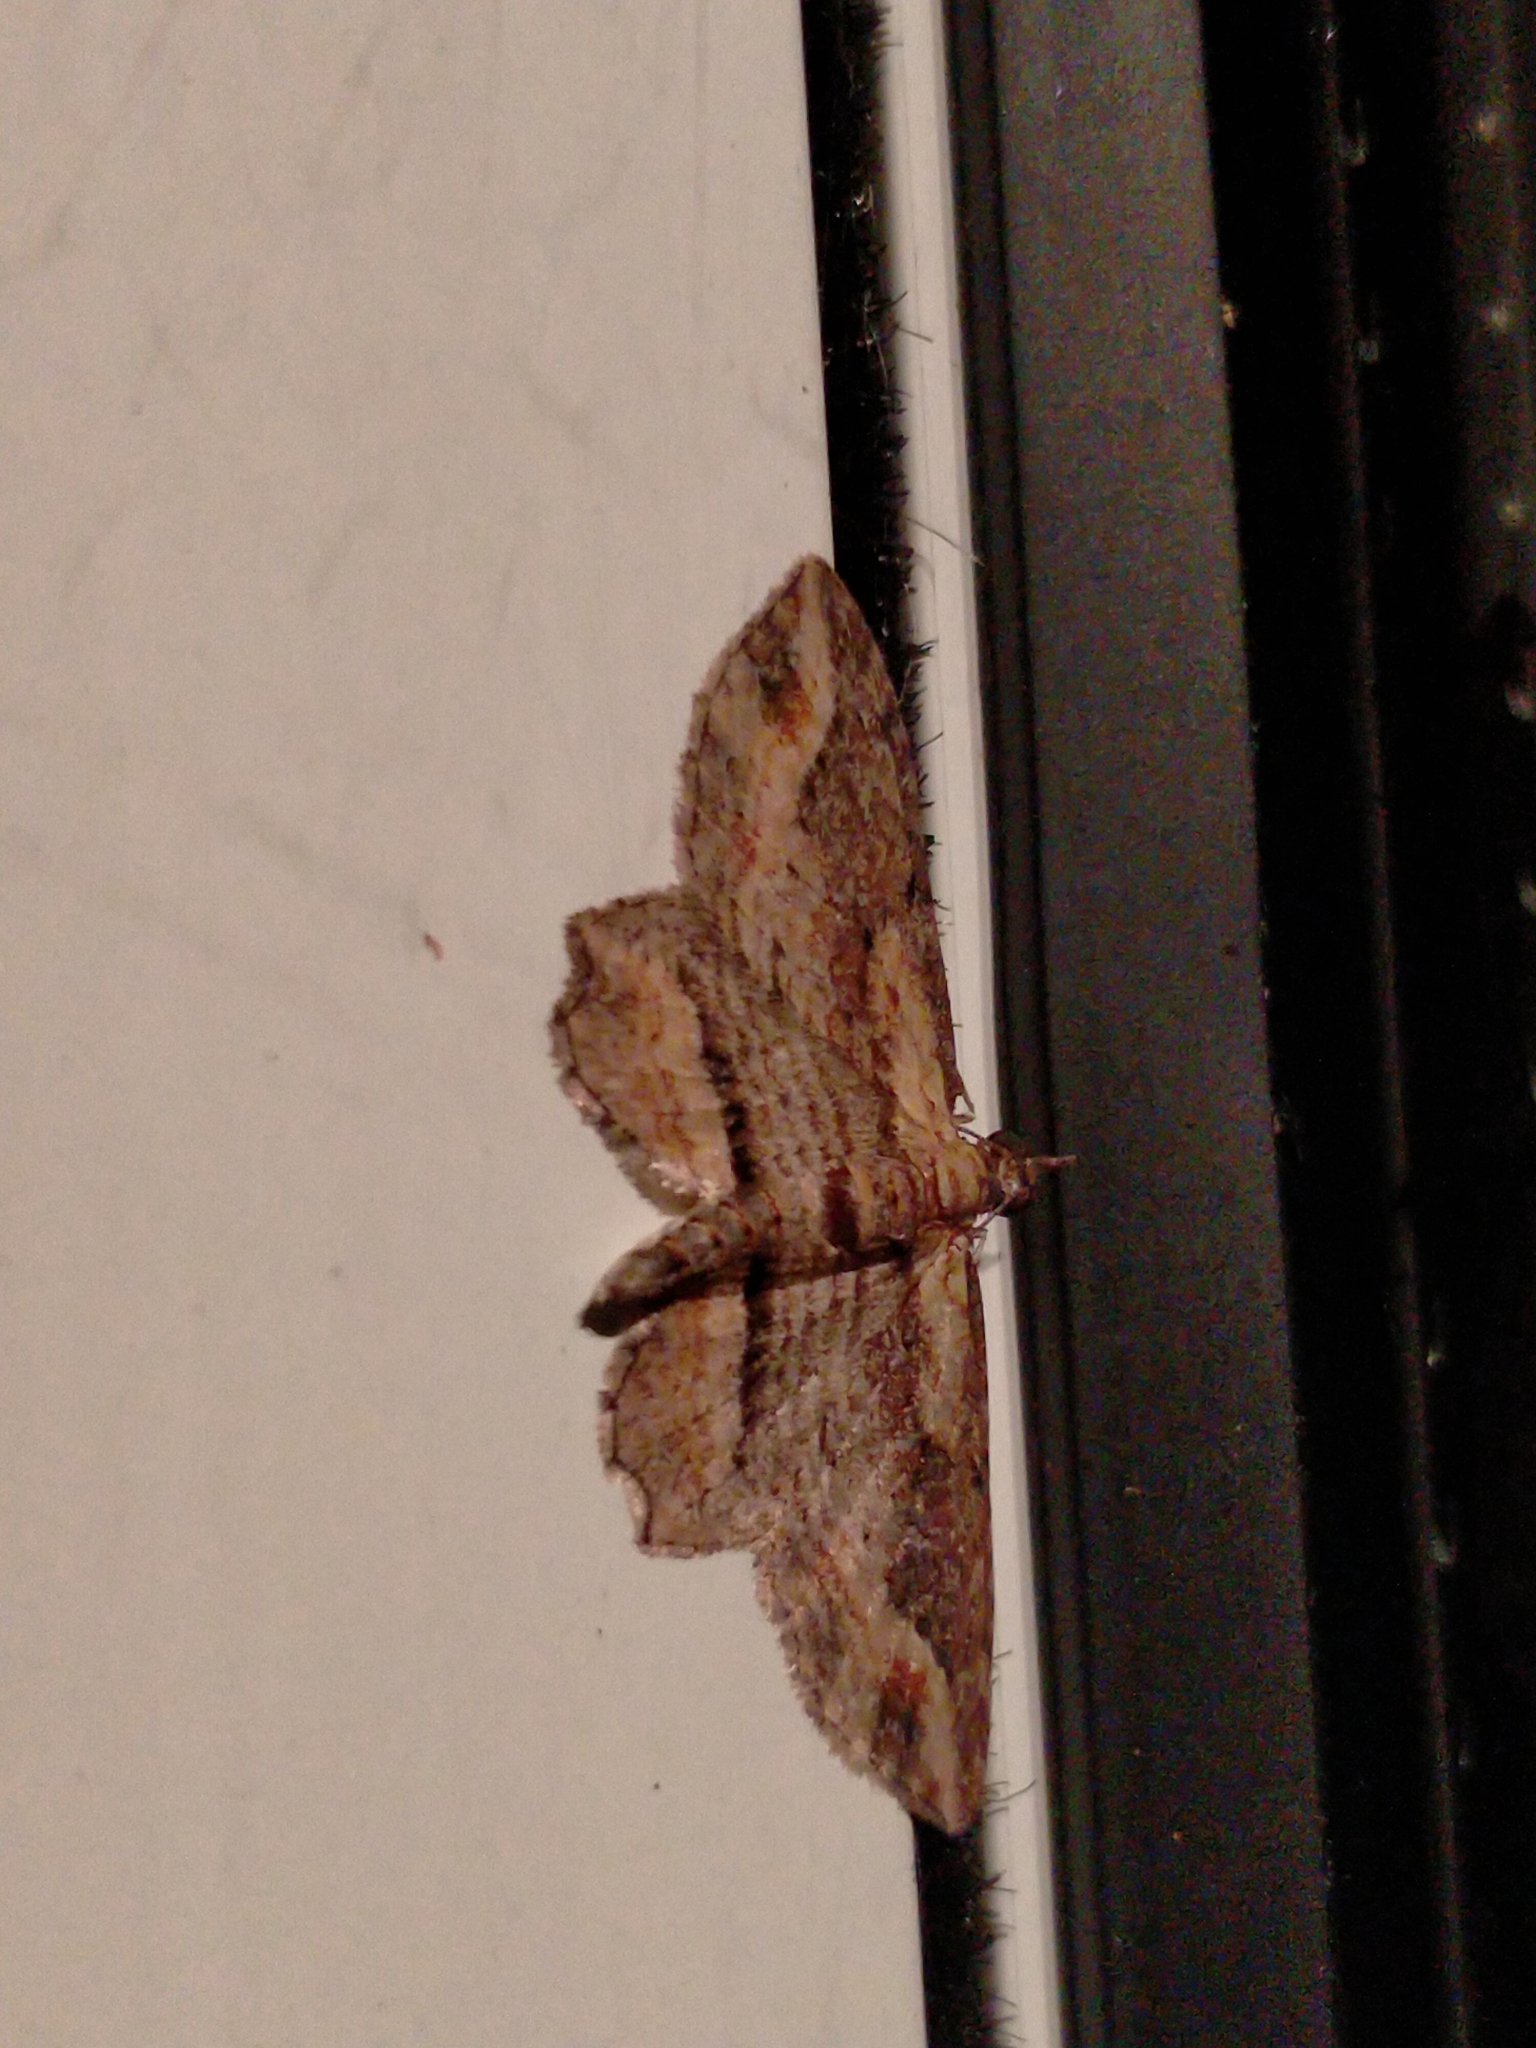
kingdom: Animalia
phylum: Arthropoda
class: Insecta
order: Lepidoptera
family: Geometridae
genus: Chloroclystis
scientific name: Chloroclystis filata
